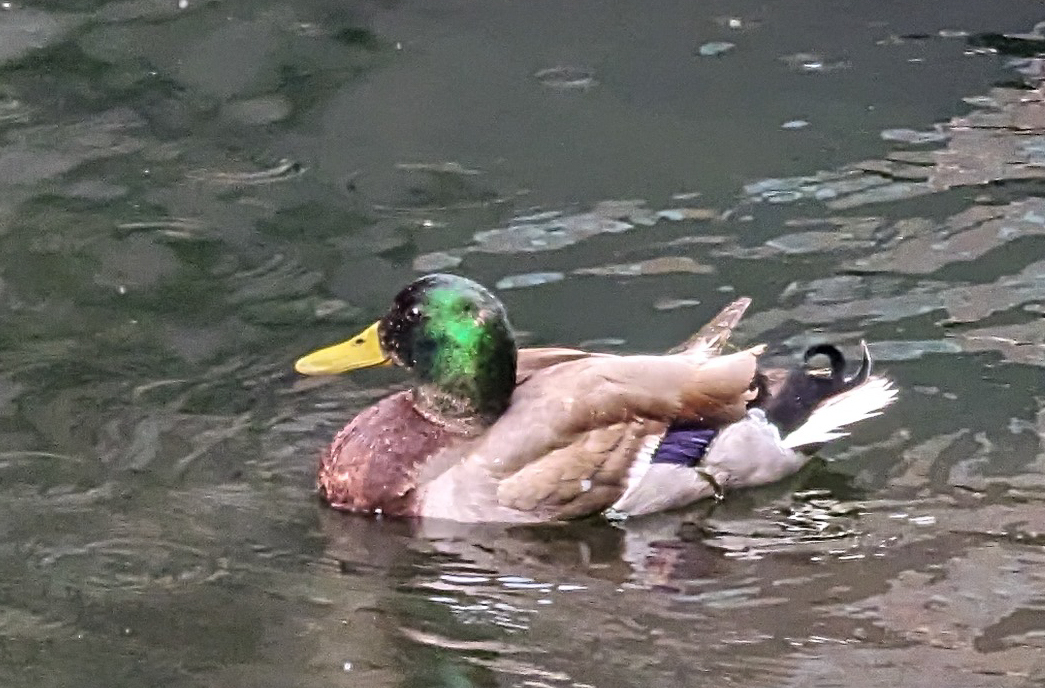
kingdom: Animalia
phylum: Chordata
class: Aves
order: Anseriformes
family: Anatidae
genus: Anas
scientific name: Anas platyrhynchos
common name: Mallard
